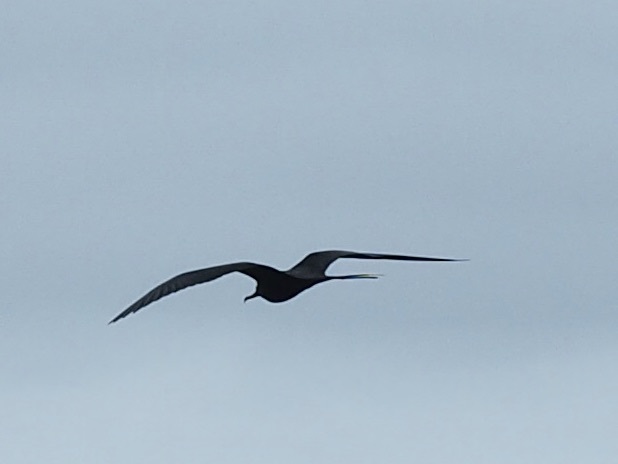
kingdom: Animalia
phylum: Chordata
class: Aves
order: Suliformes
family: Fregatidae
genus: Fregata
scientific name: Fregata magnificens
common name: Magnificent frigatebird
